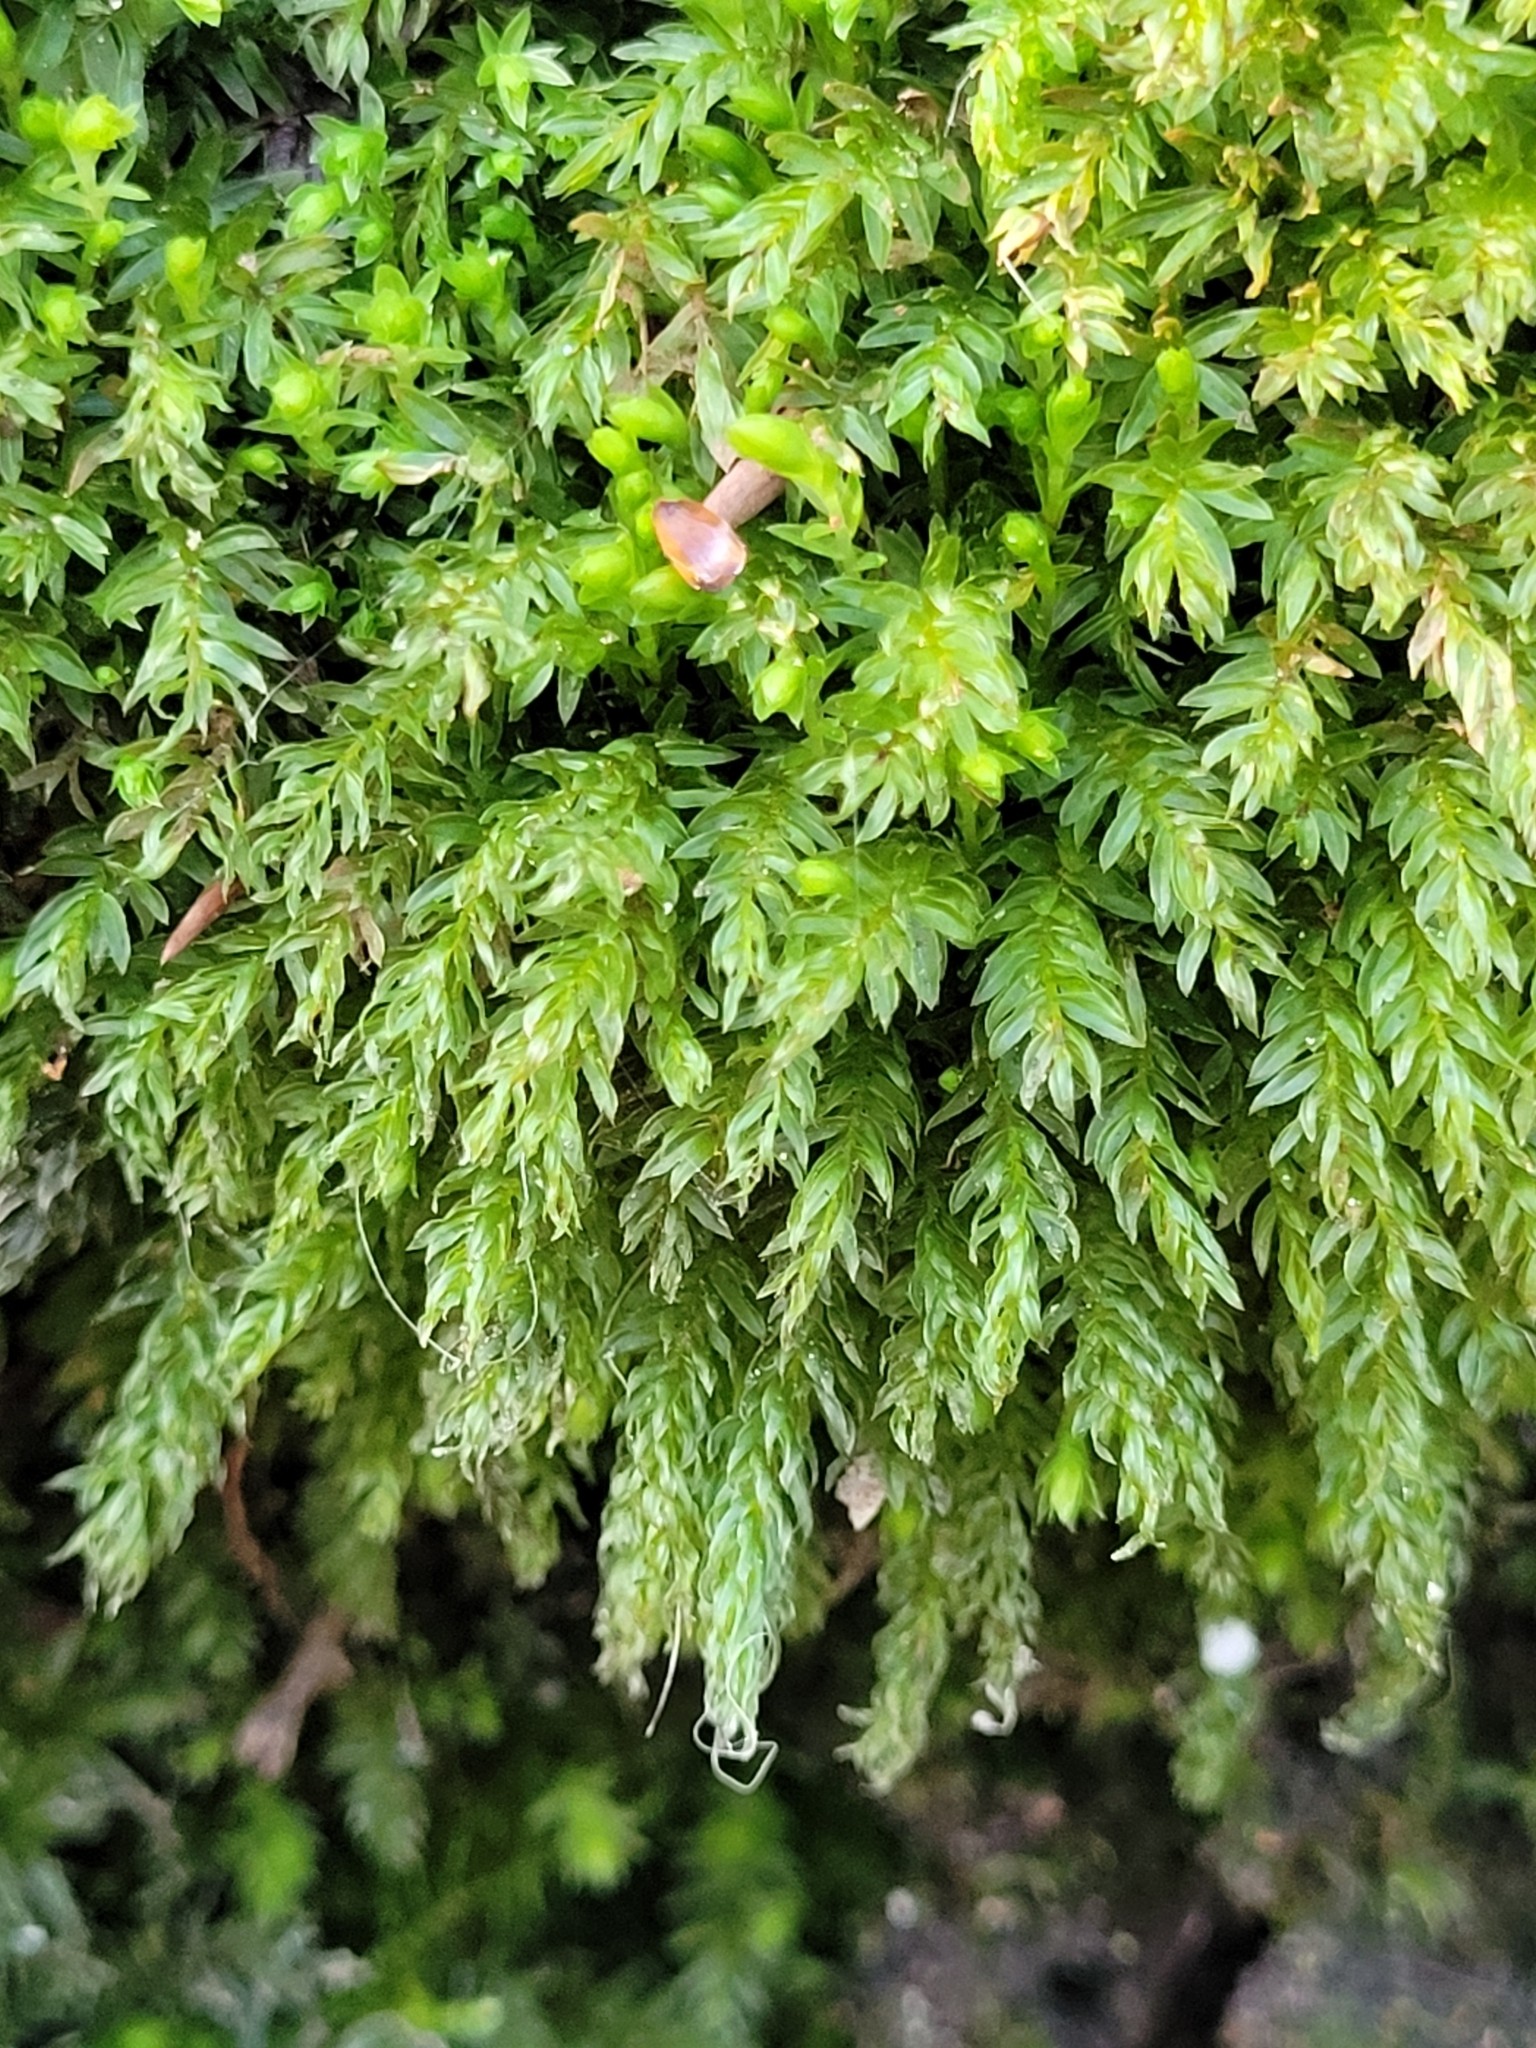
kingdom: Plantae
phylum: Bryophyta
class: Bryopsida
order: Bryales
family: Mniaceae
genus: Mnium
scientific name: Mnium hornum
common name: Swan's-neck leafy moss
